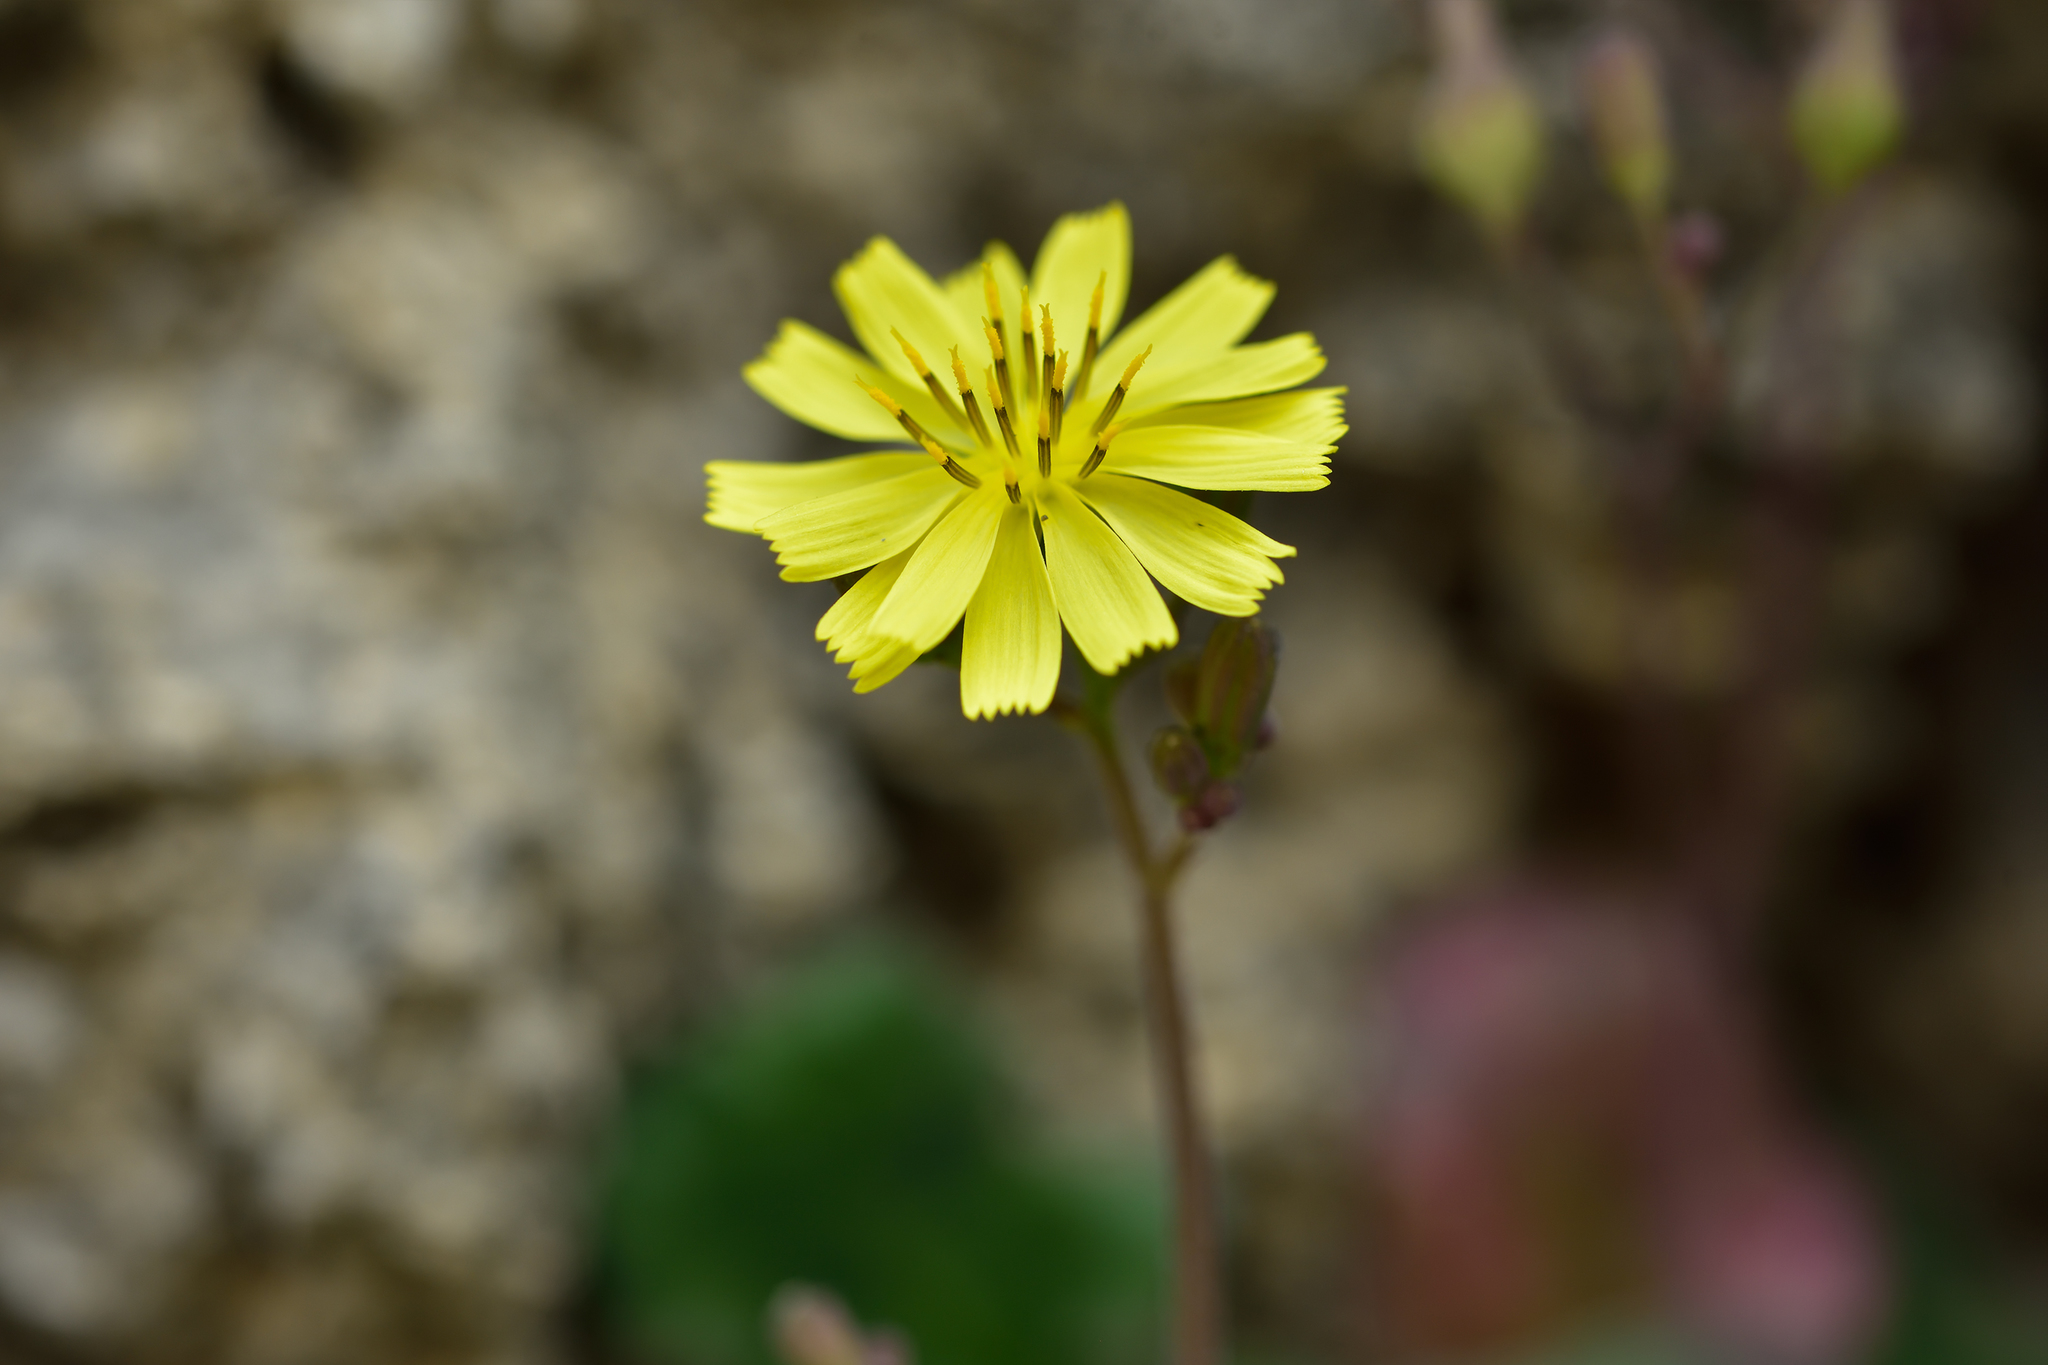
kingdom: Plantae
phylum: Tracheophyta
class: Magnoliopsida
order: Asterales
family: Asteraceae
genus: Youngia
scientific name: Youngia japonica
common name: Oriental false hawksbeard
